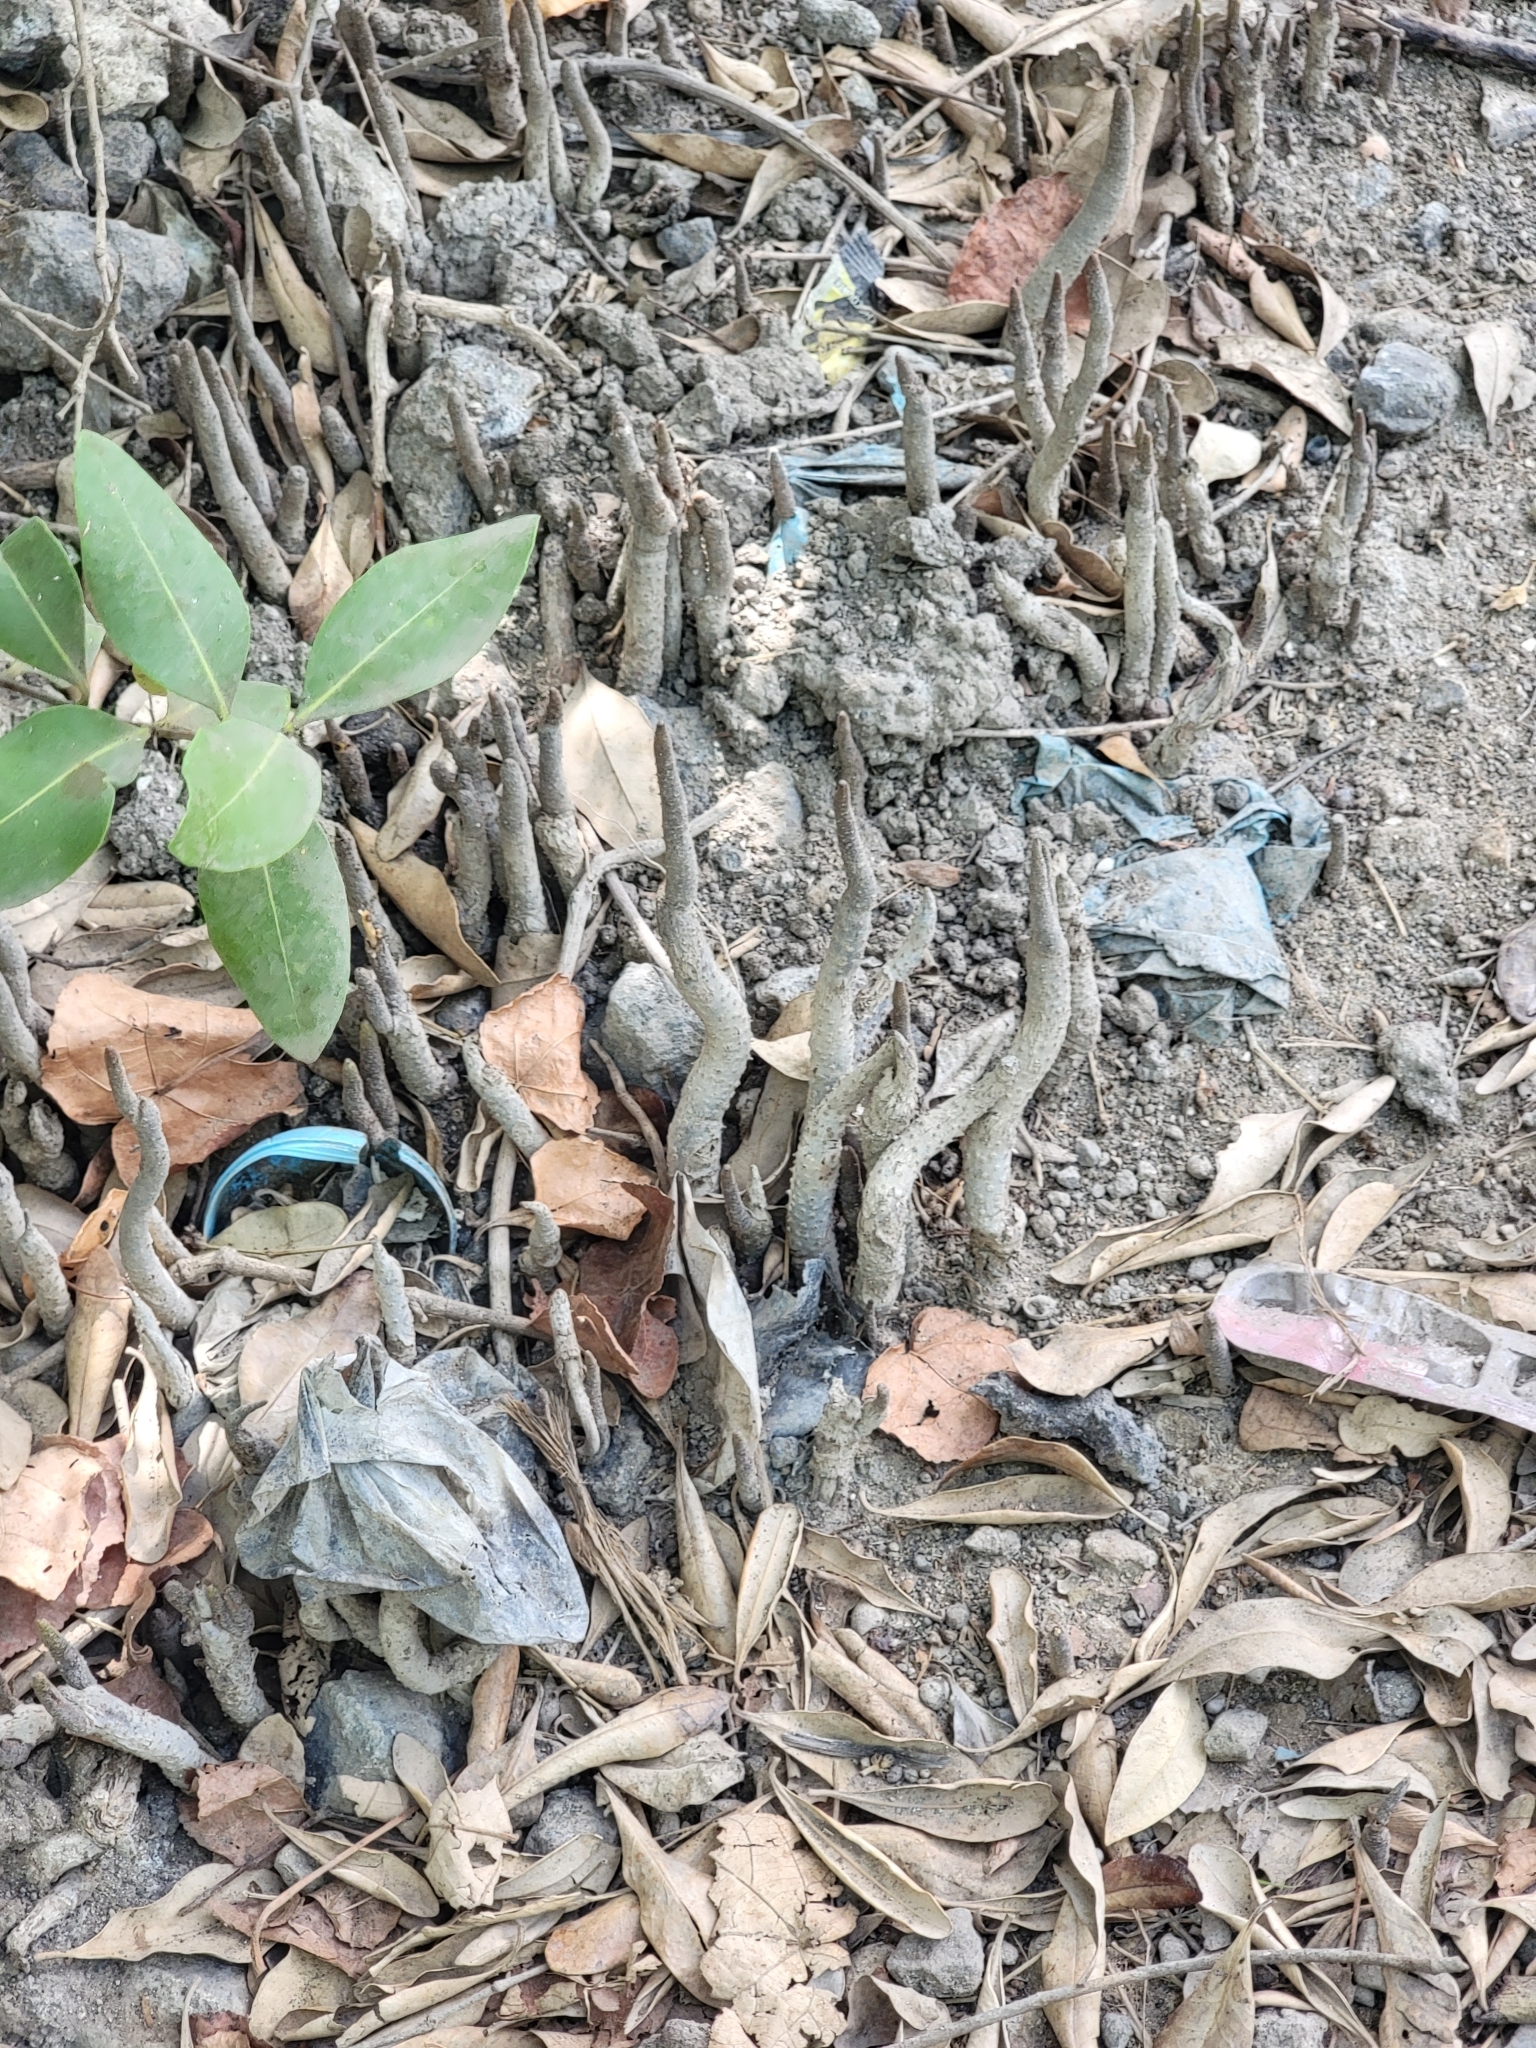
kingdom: Plantae
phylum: Tracheophyta
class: Magnoliopsida
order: Lamiales
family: Acanthaceae
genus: Avicennia
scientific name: Avicennia marina
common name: Gray mangrove
